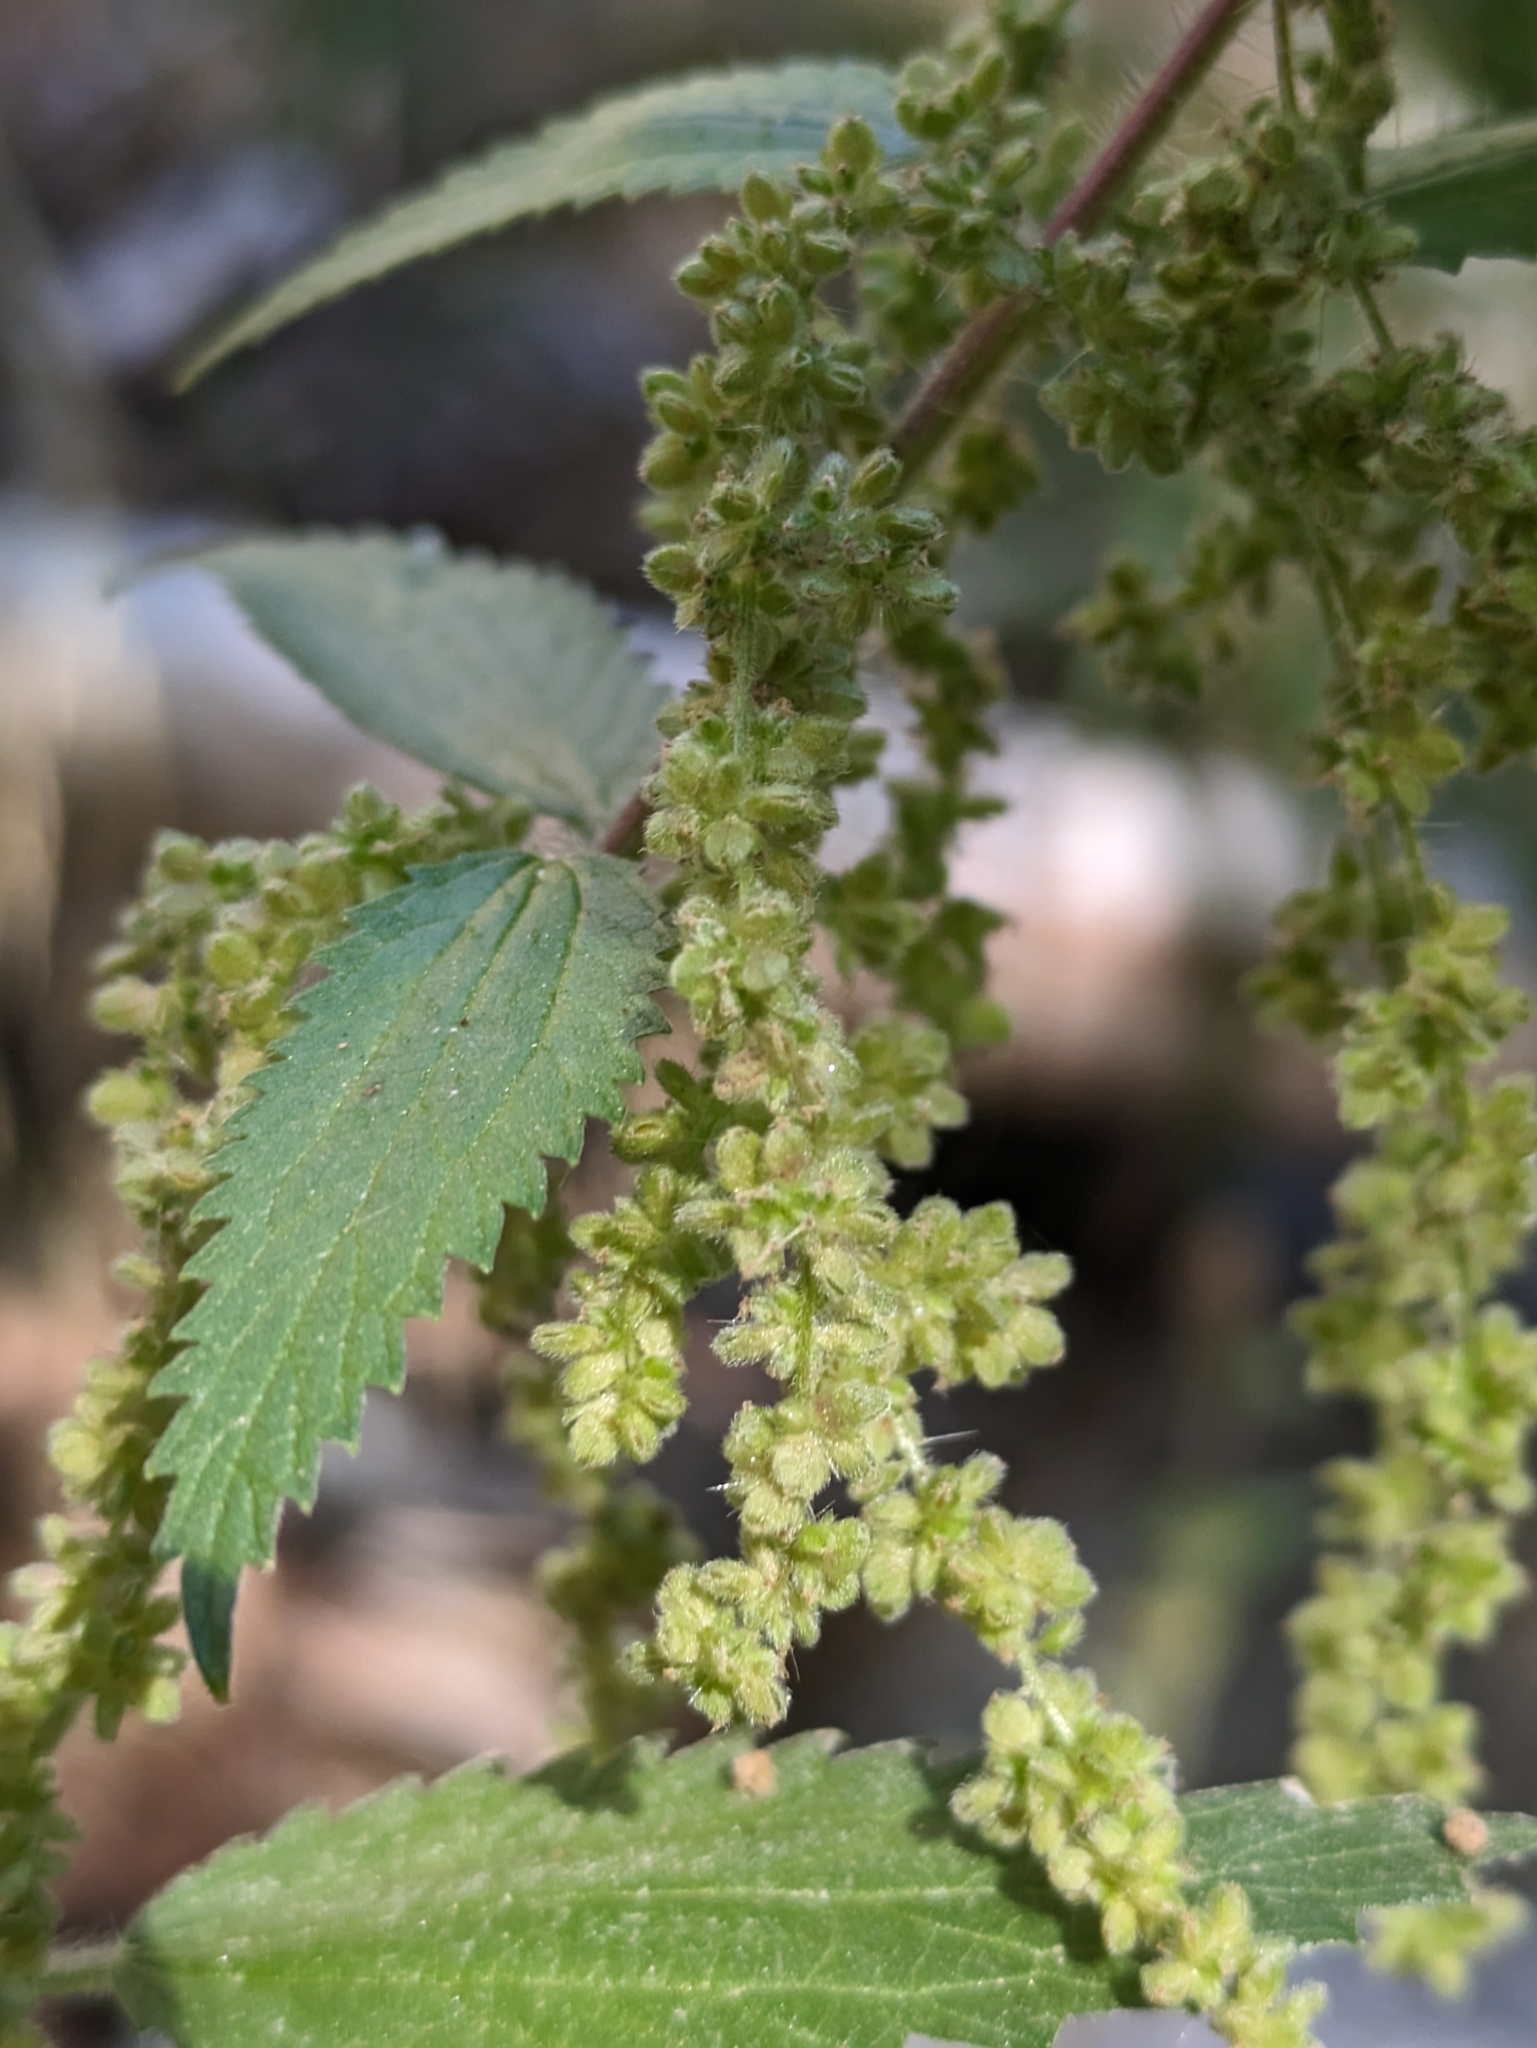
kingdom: Plantae
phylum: Tracheophyta
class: Magnoliopsida
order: Rosales
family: Urticaceae
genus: Urtica
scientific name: Urtica gracilis
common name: Slender stinging nettle
